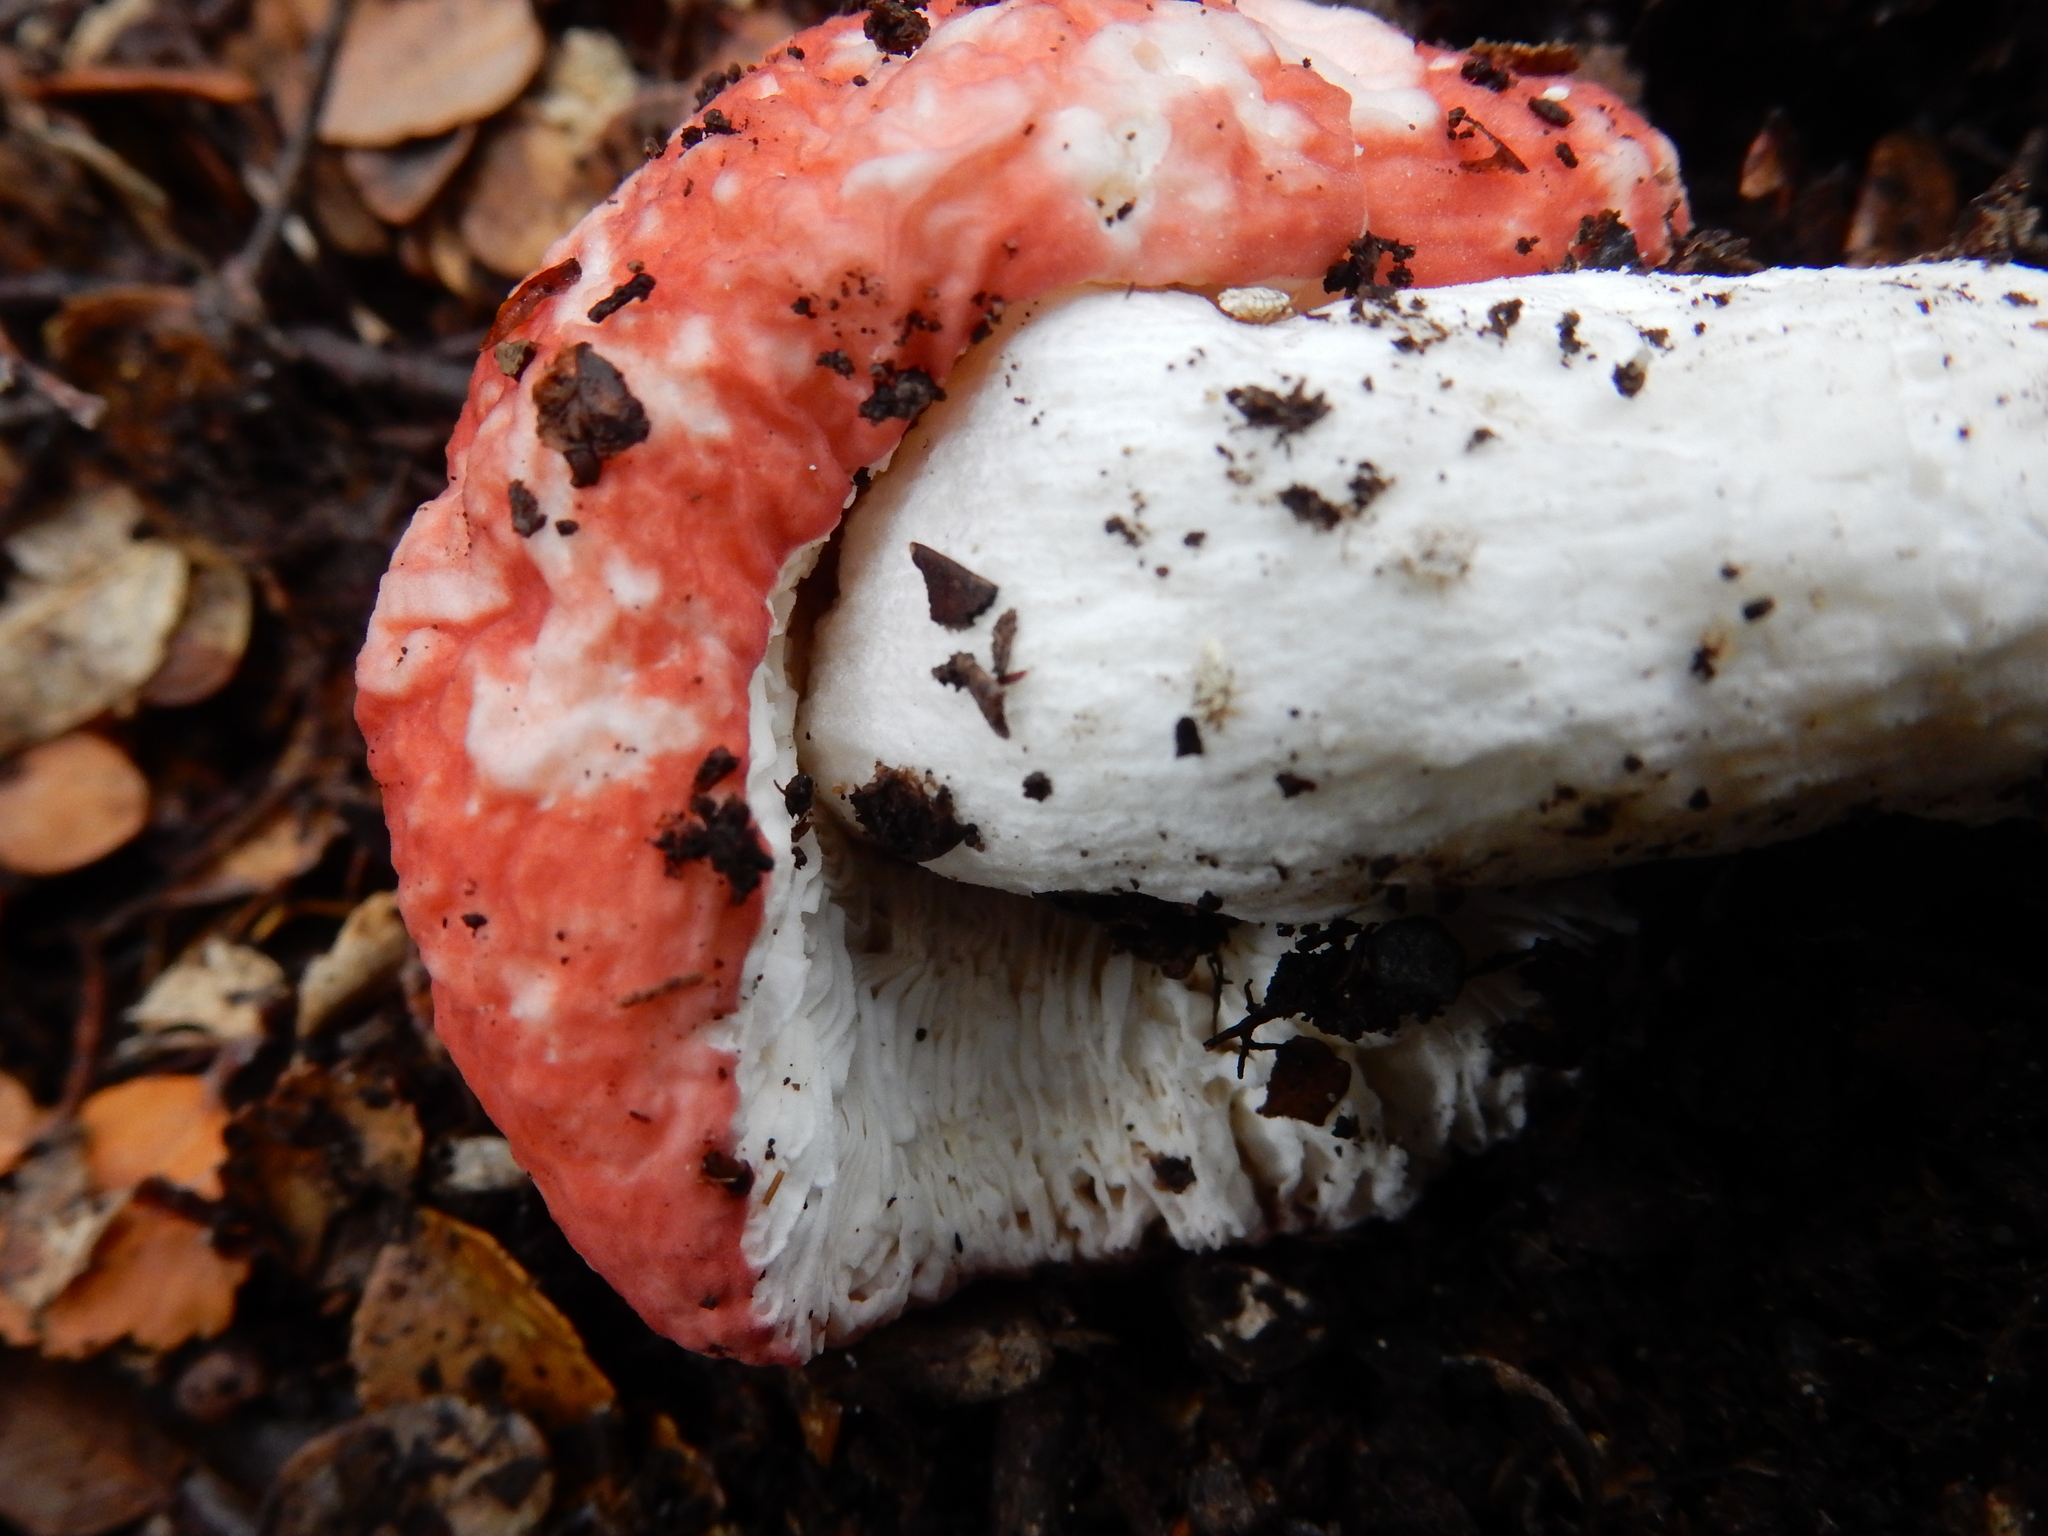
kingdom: Fungi
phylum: Basidiomycota
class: Agaricomycetes
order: Russulales
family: Russulaceae
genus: Russula
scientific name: Russula kermesina
